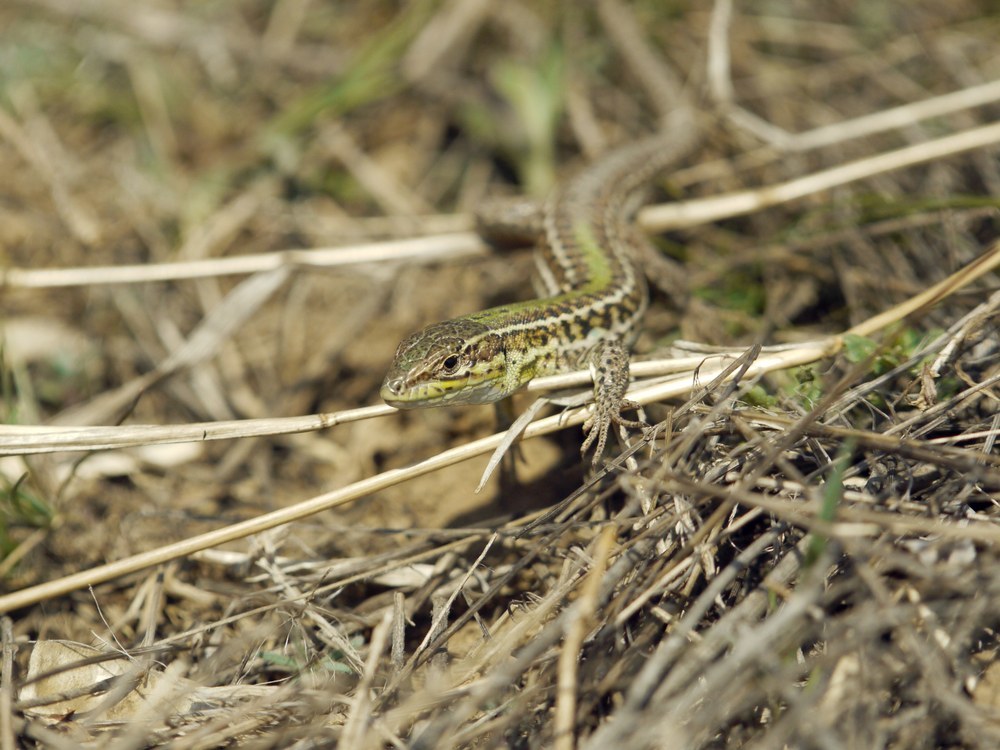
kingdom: Animalia
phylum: Chordata
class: Squamata
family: Lacertidae
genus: Podarcis
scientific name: Podarcis tauricus
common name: Balkan wall lizard
